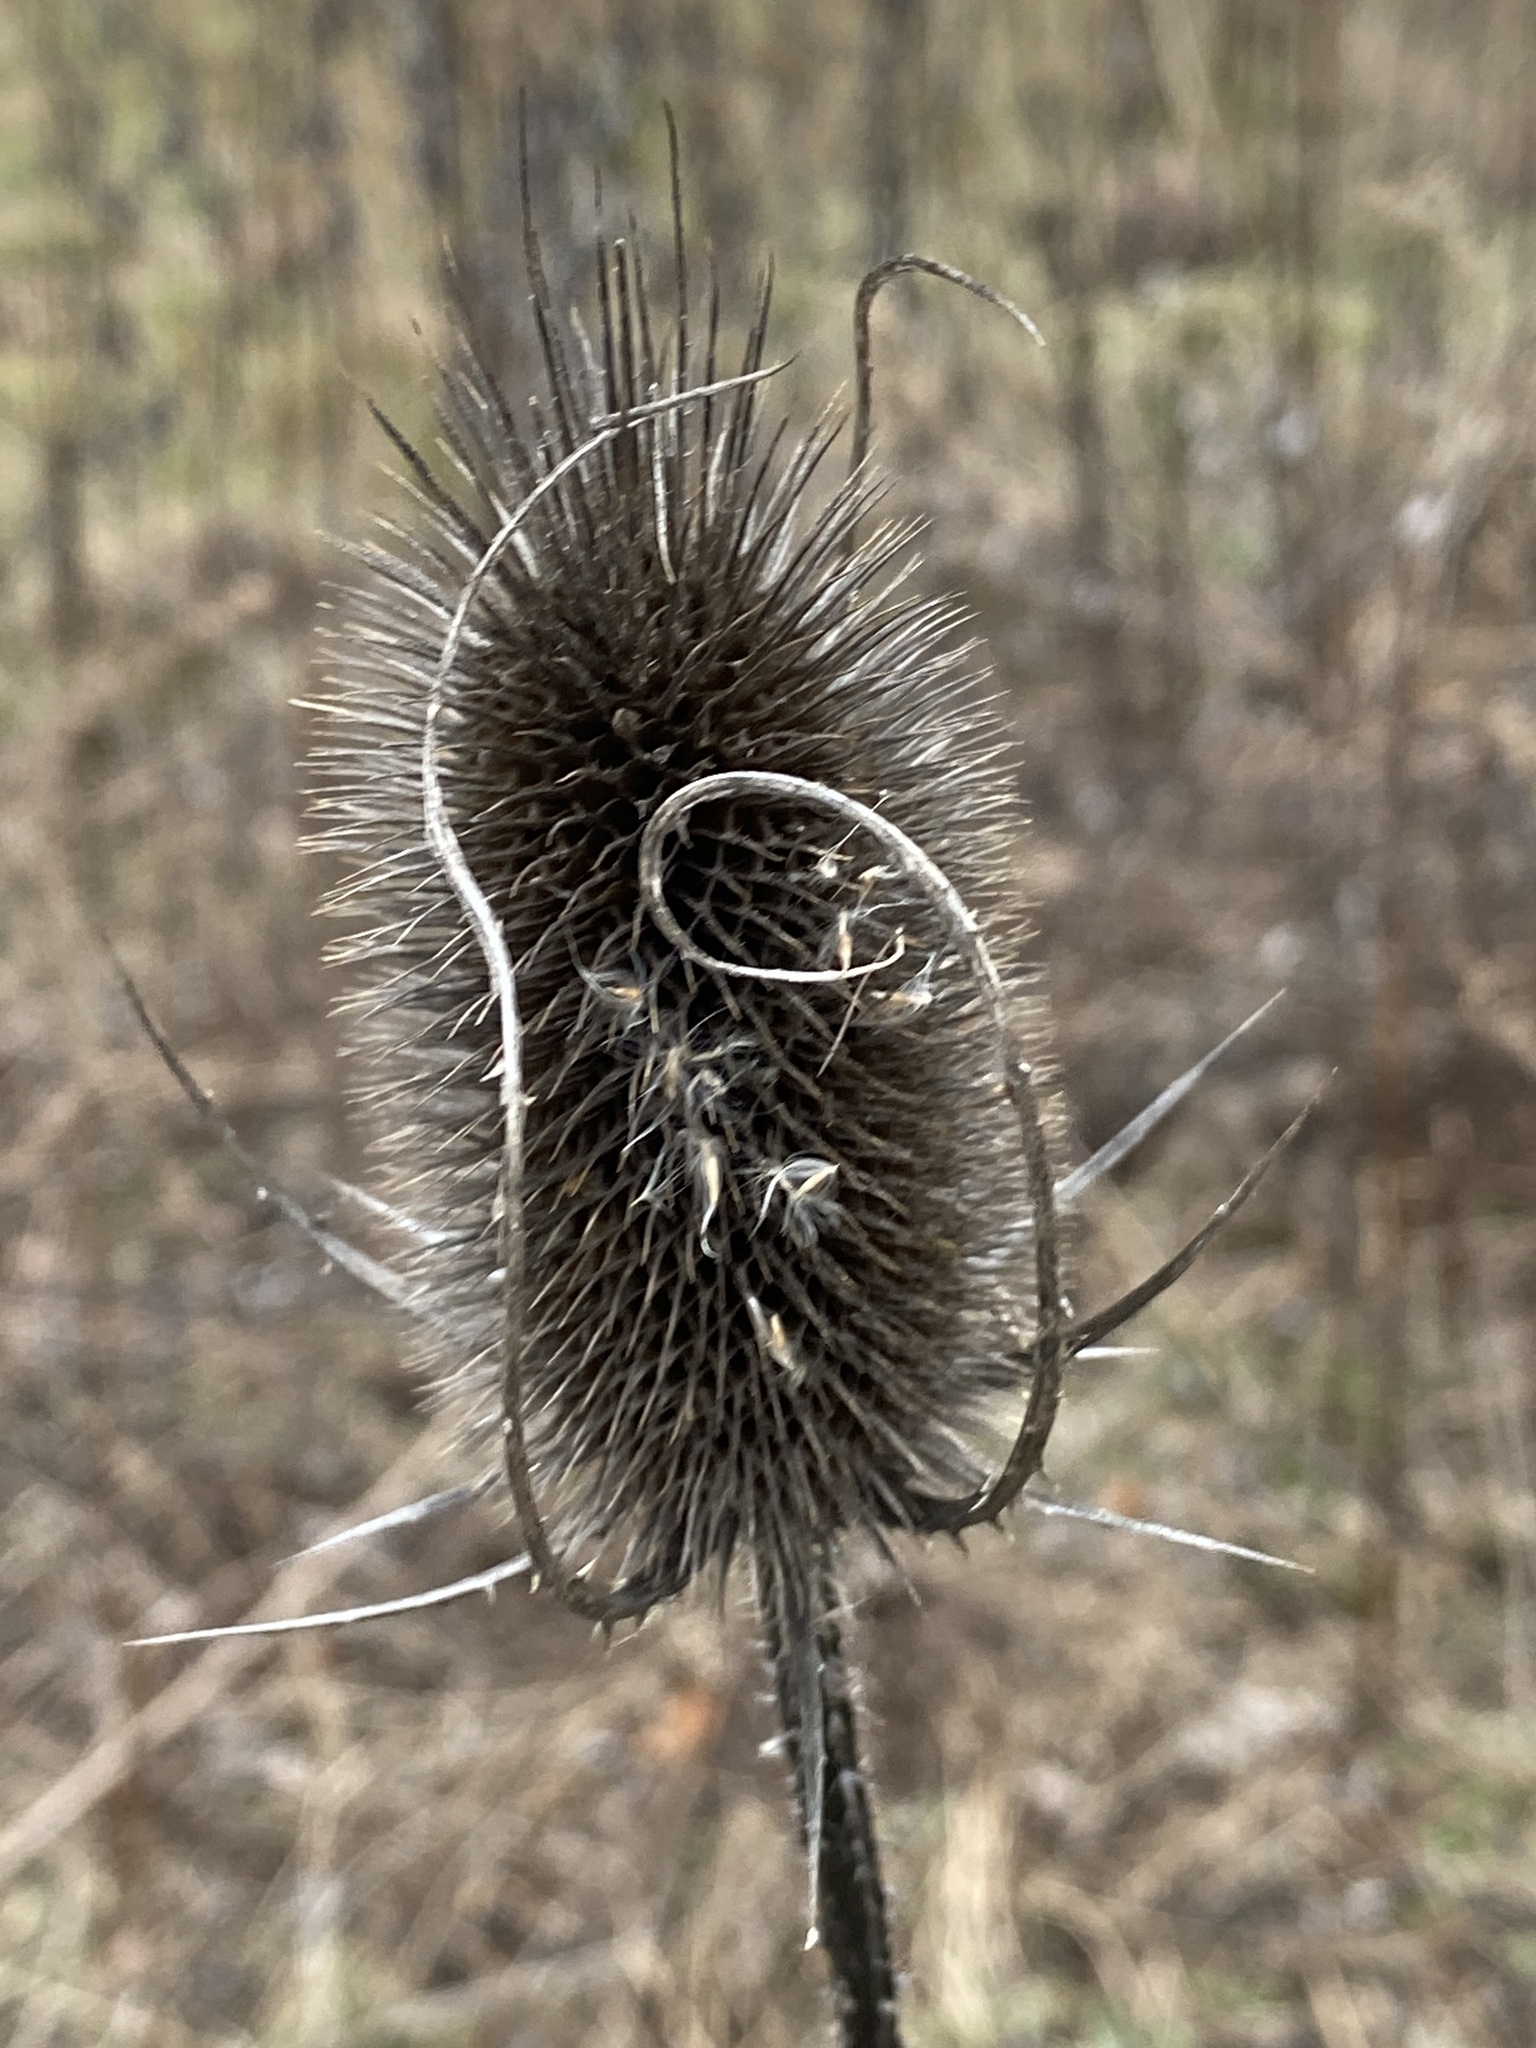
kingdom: Plantae
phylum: Tracheophyta
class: Magnoliopsida
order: Dipsacales
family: Caprifoliaceae
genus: Dipsacus
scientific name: Dipsacus fullonum
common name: Teasel
